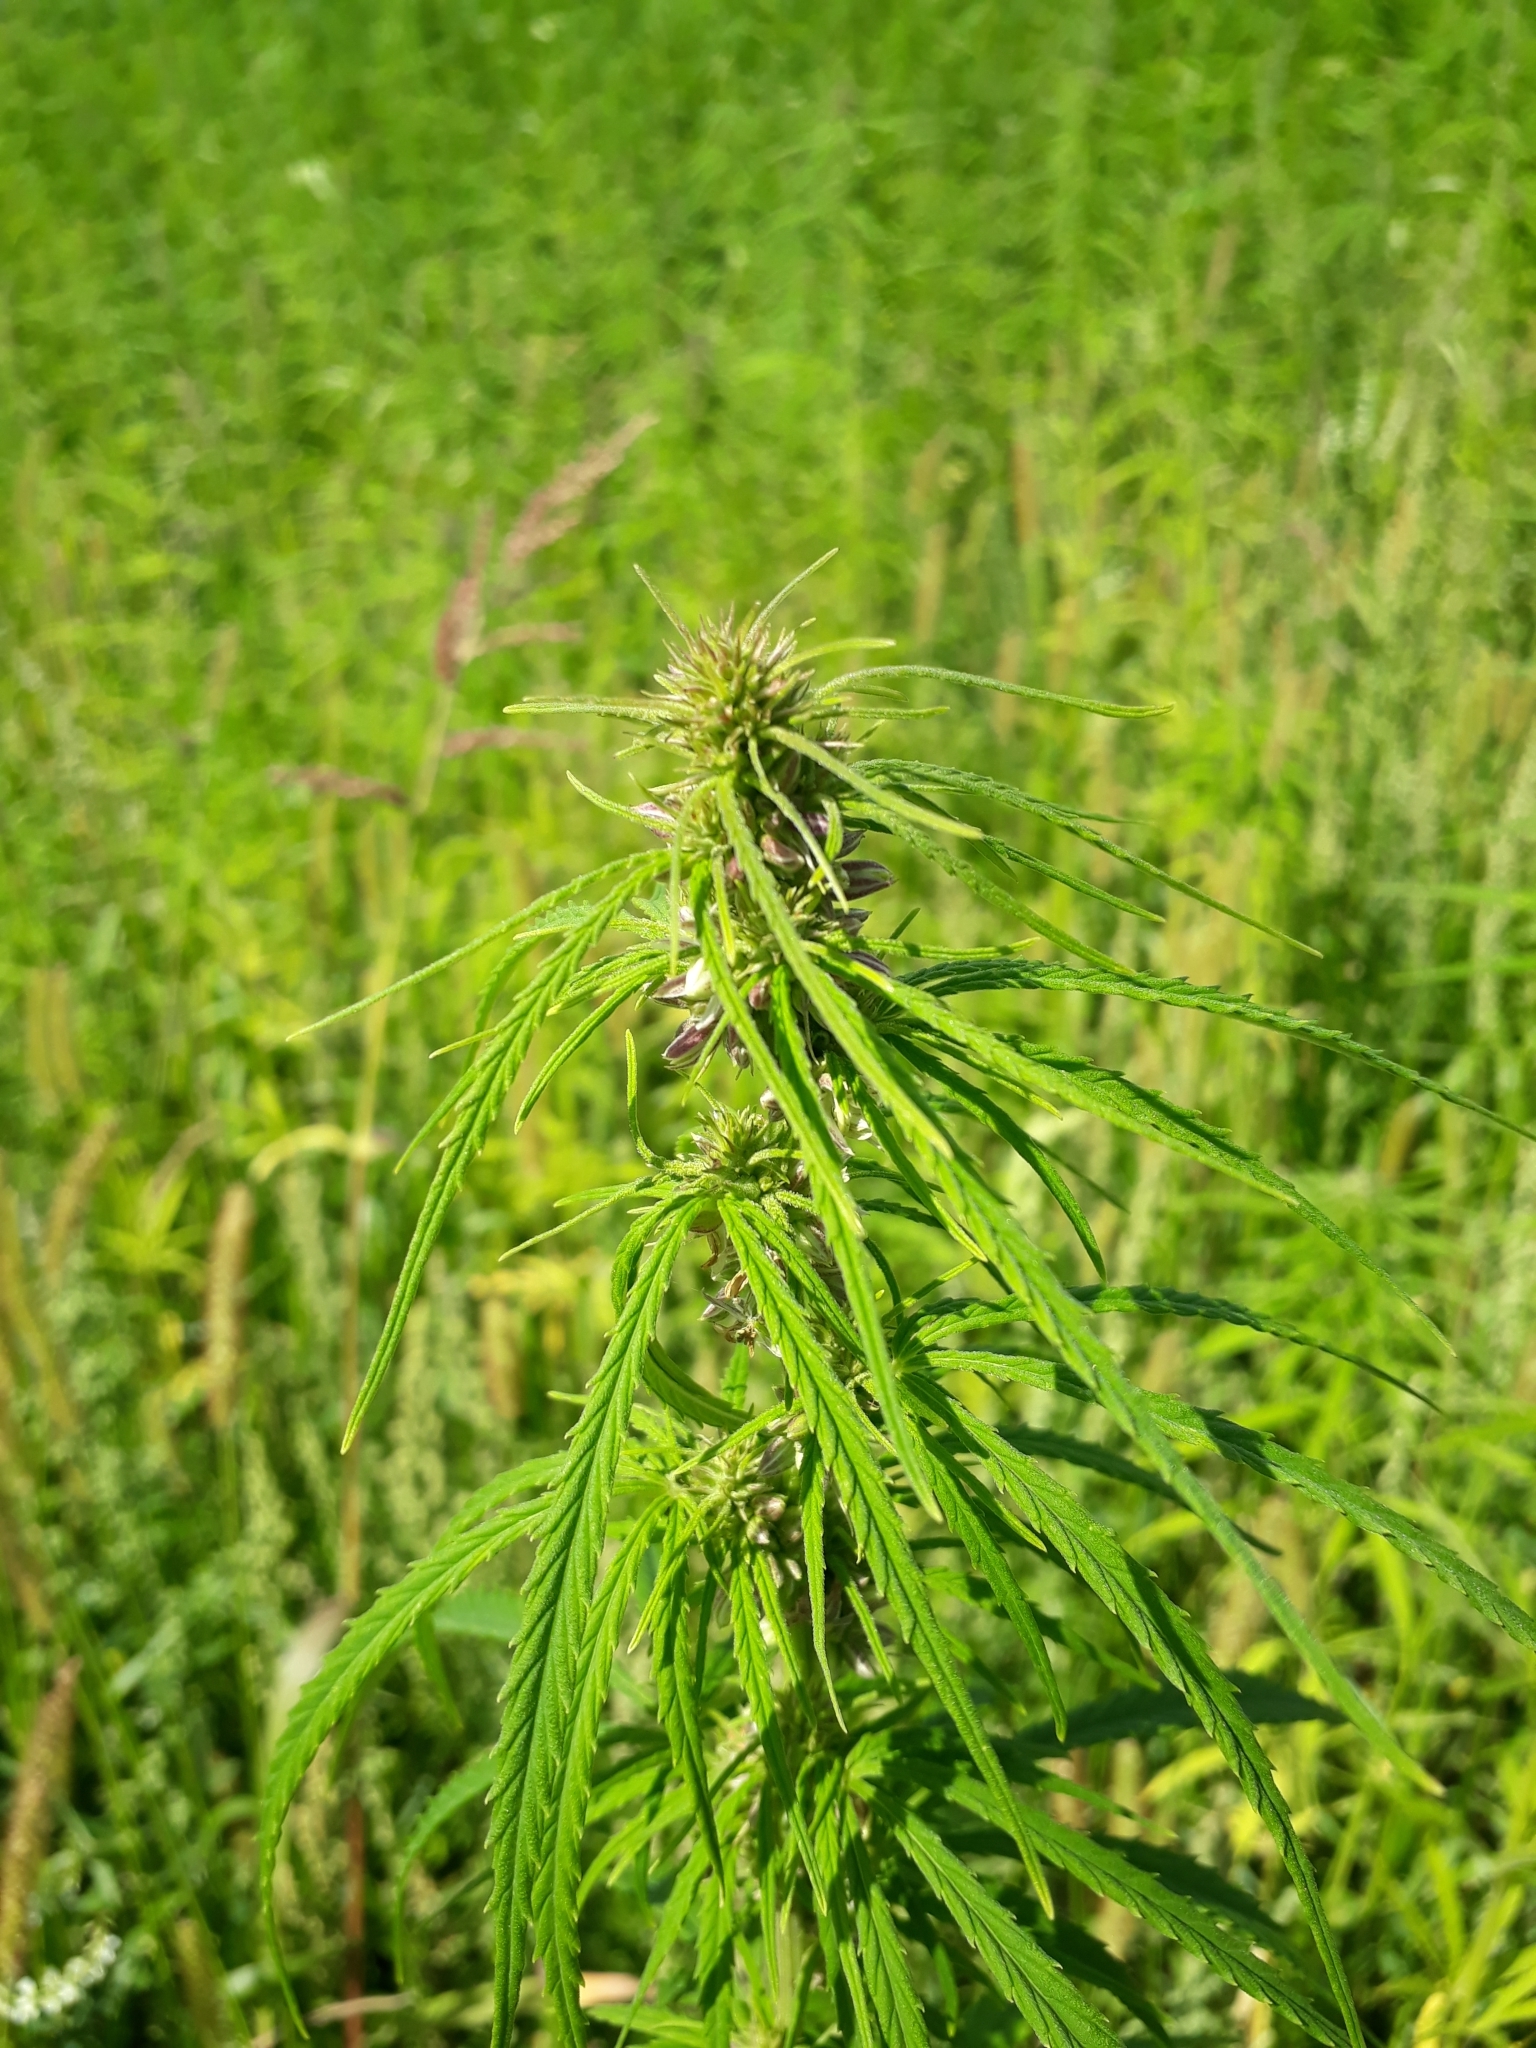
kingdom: Plantae
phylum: Tracheophyta
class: Magnoliopsida
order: Rosales
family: Cannabaceae
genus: Cannabis
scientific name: Cannabis sativa
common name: Hemp
